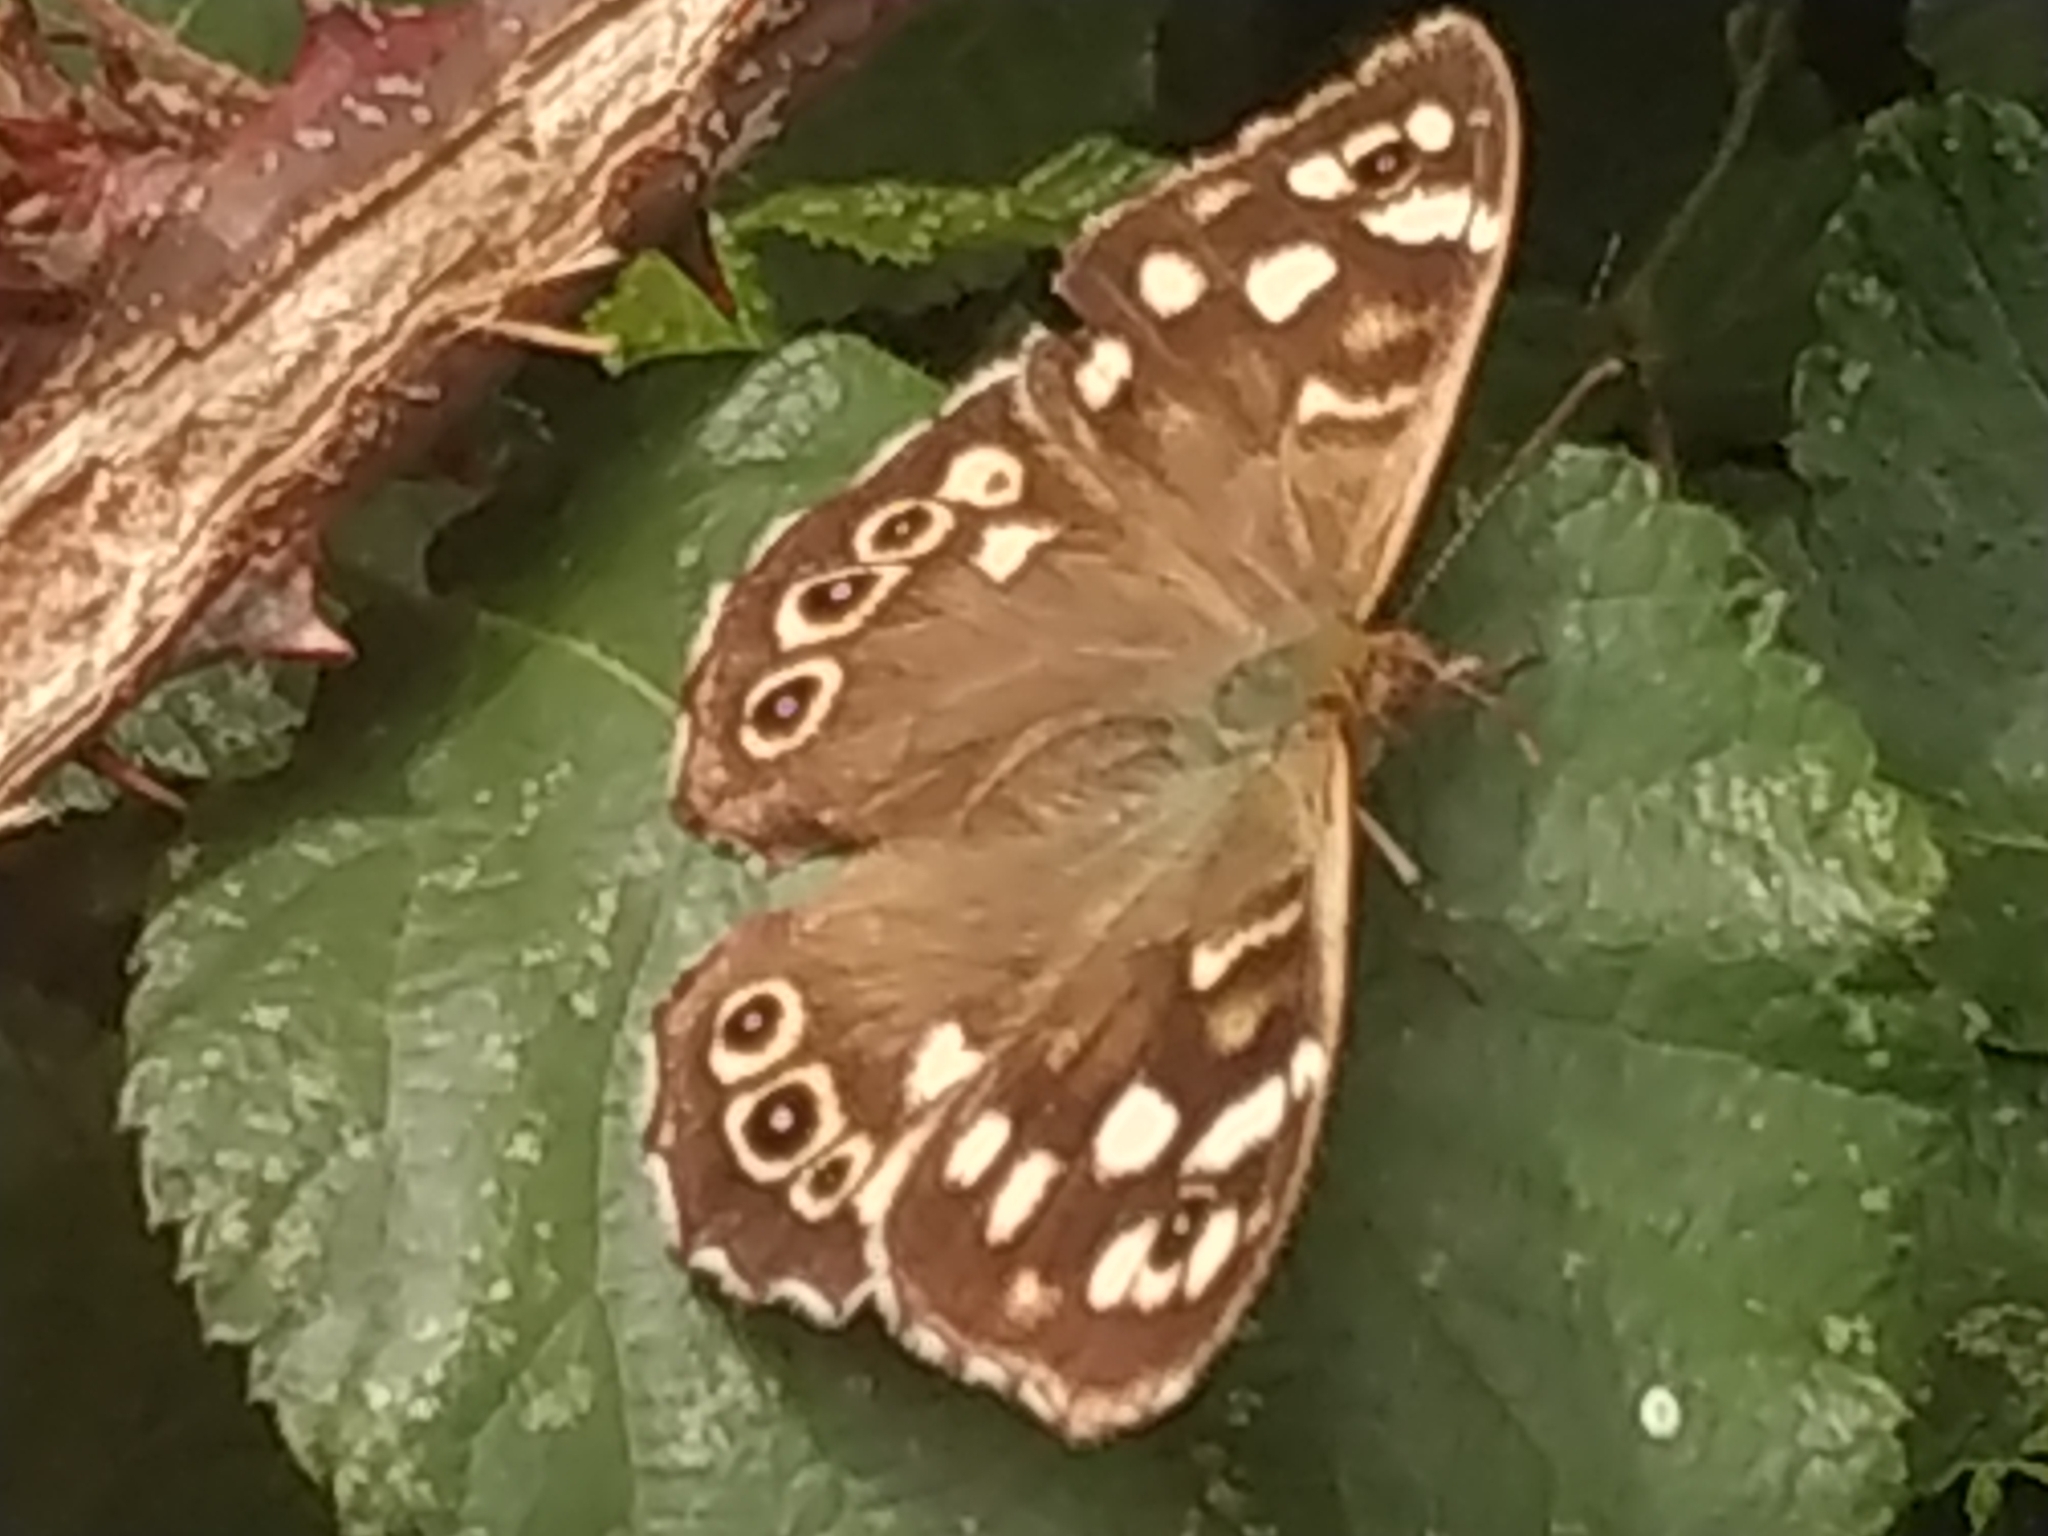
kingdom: Animalia
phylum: Arthropoda
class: Insecta
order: Lepidoptera
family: Nymphalidae
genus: Pararge
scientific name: Pararge aegeria
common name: Speckled wood
